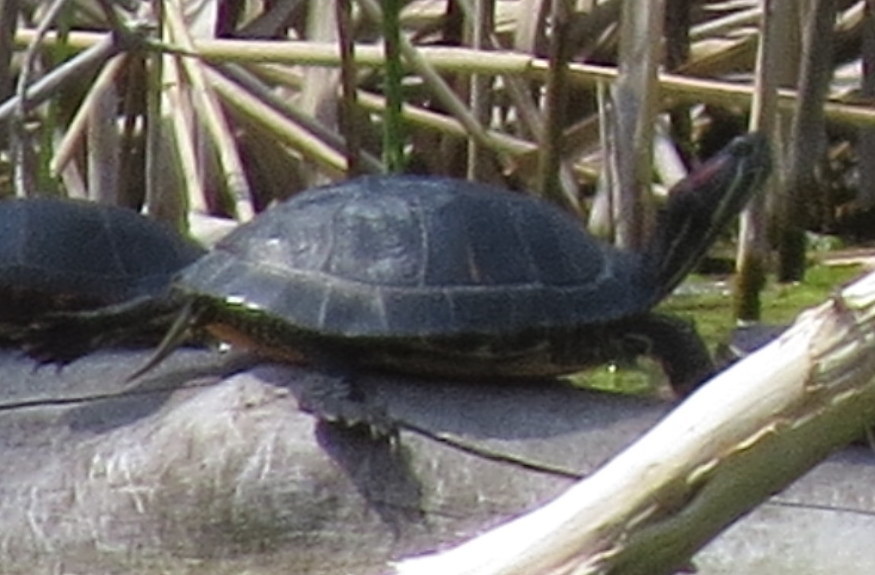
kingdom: Animalia
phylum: Chordata
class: Testudines
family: Emydidae
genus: Trachemys
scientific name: Trachemys scripta
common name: Slider
